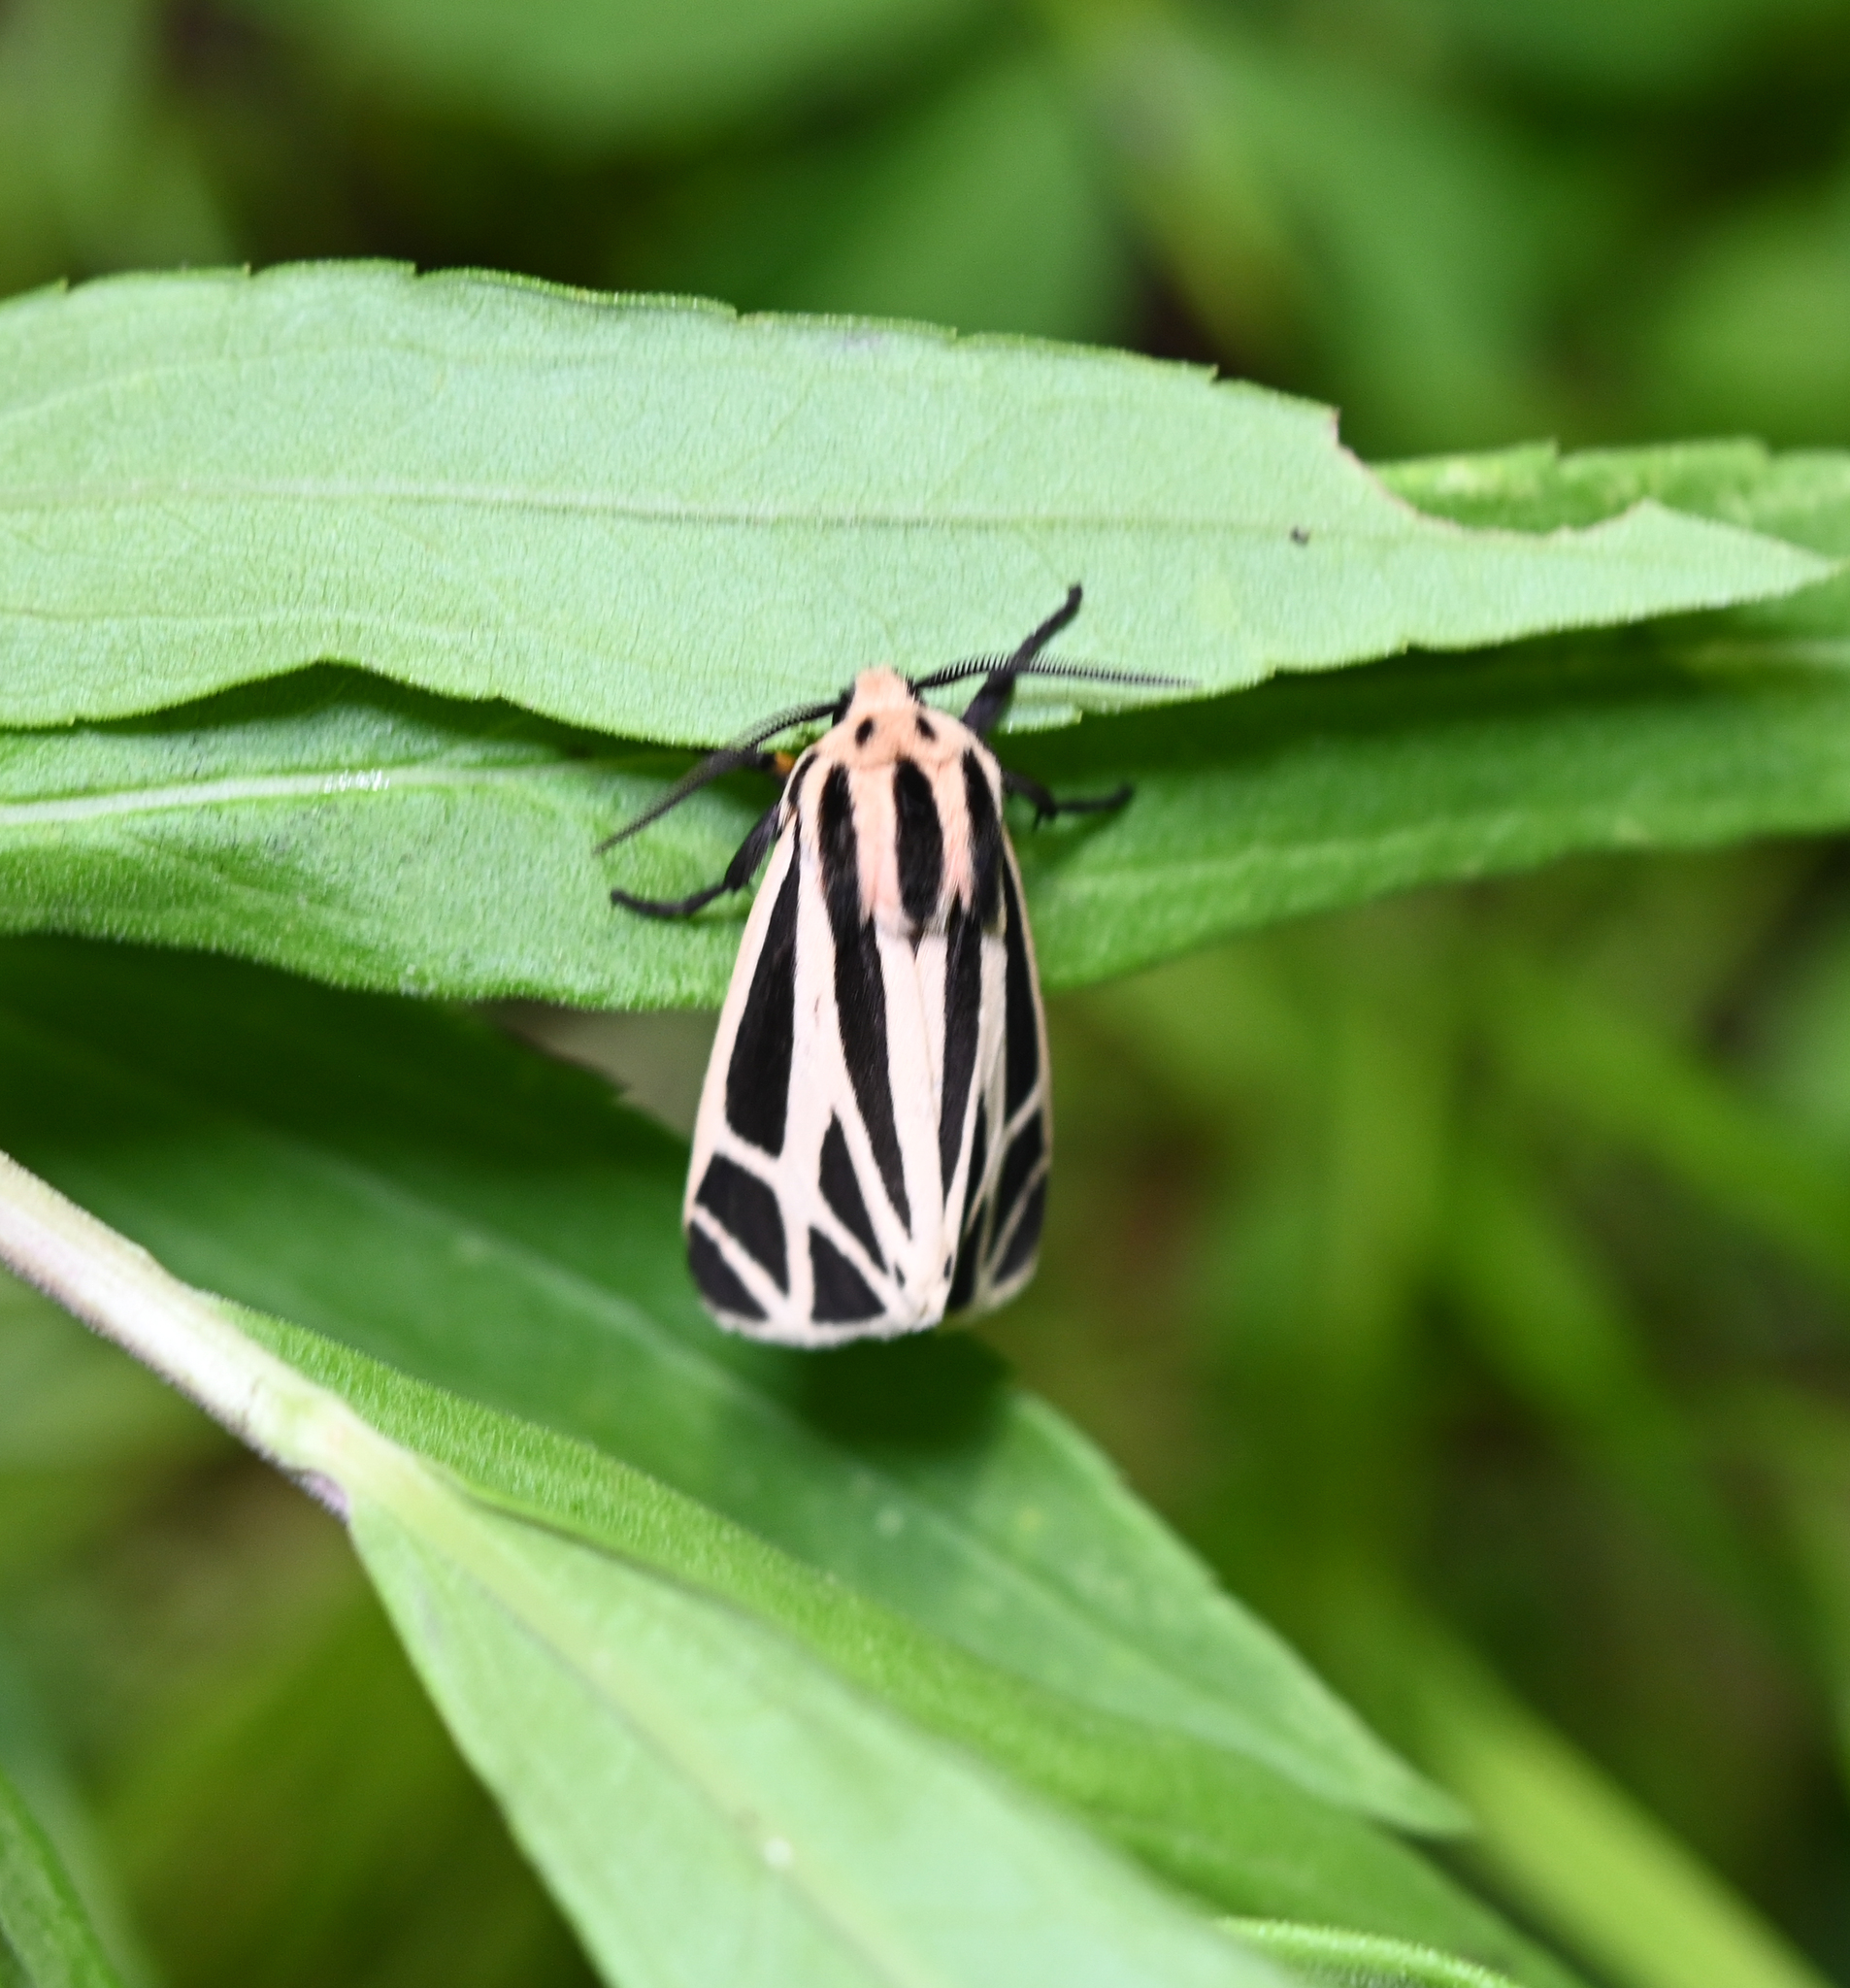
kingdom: Animalia
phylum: Arthropoda
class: Insecta
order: Lepidoptera
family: Erebidae
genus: Apantesis
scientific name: Apantesis phalerata
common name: Harnessed tiger moth
